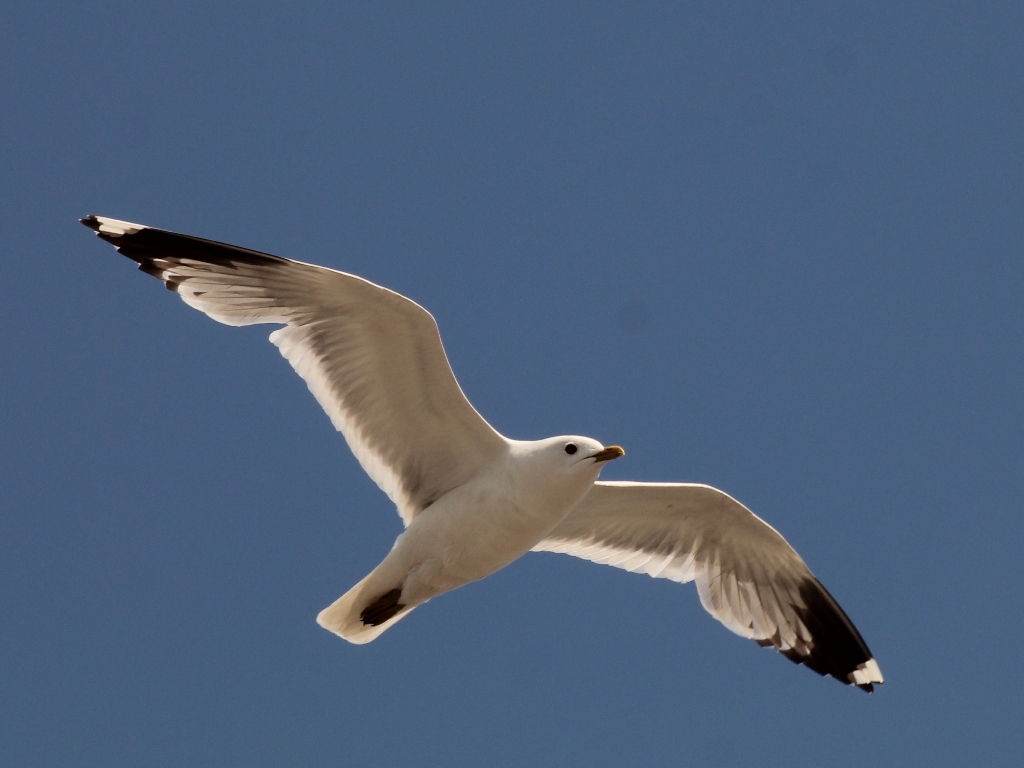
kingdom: Animalia
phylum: Chordata
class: Aves
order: Charadriiformes
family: Laridae
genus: Larus
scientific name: Larus canus
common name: Mew gull
